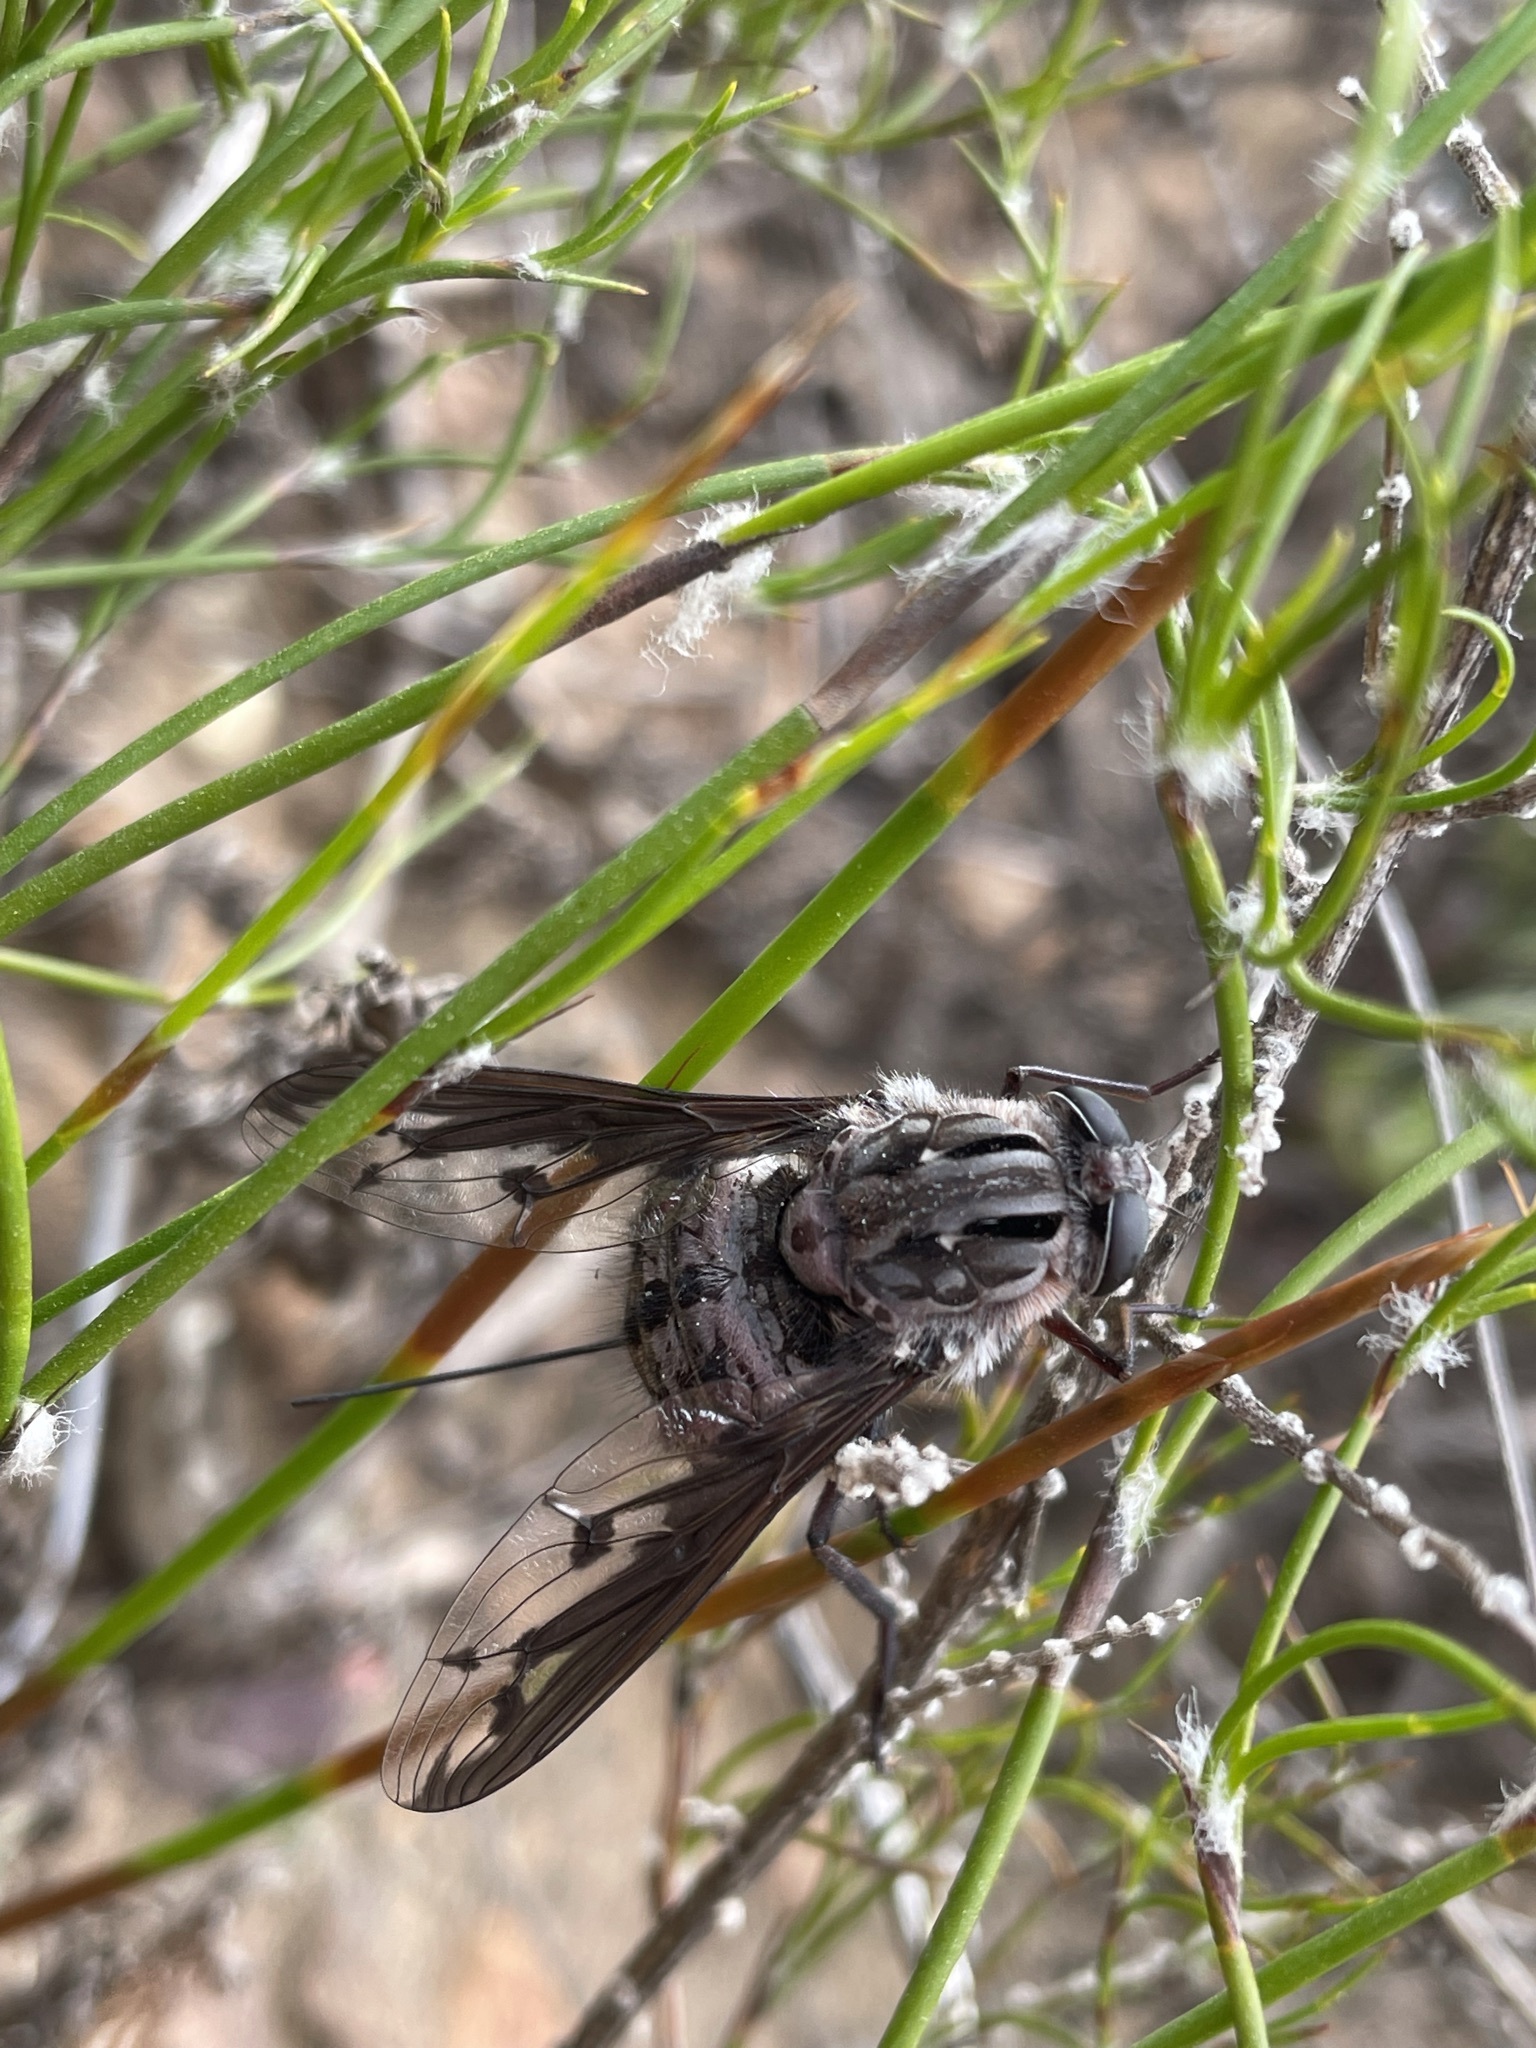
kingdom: Animalia
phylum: Arthropoda
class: Insecta
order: Diptera
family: Nemestrinidae
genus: Prosoeca
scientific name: Prosoeca peringueyi
